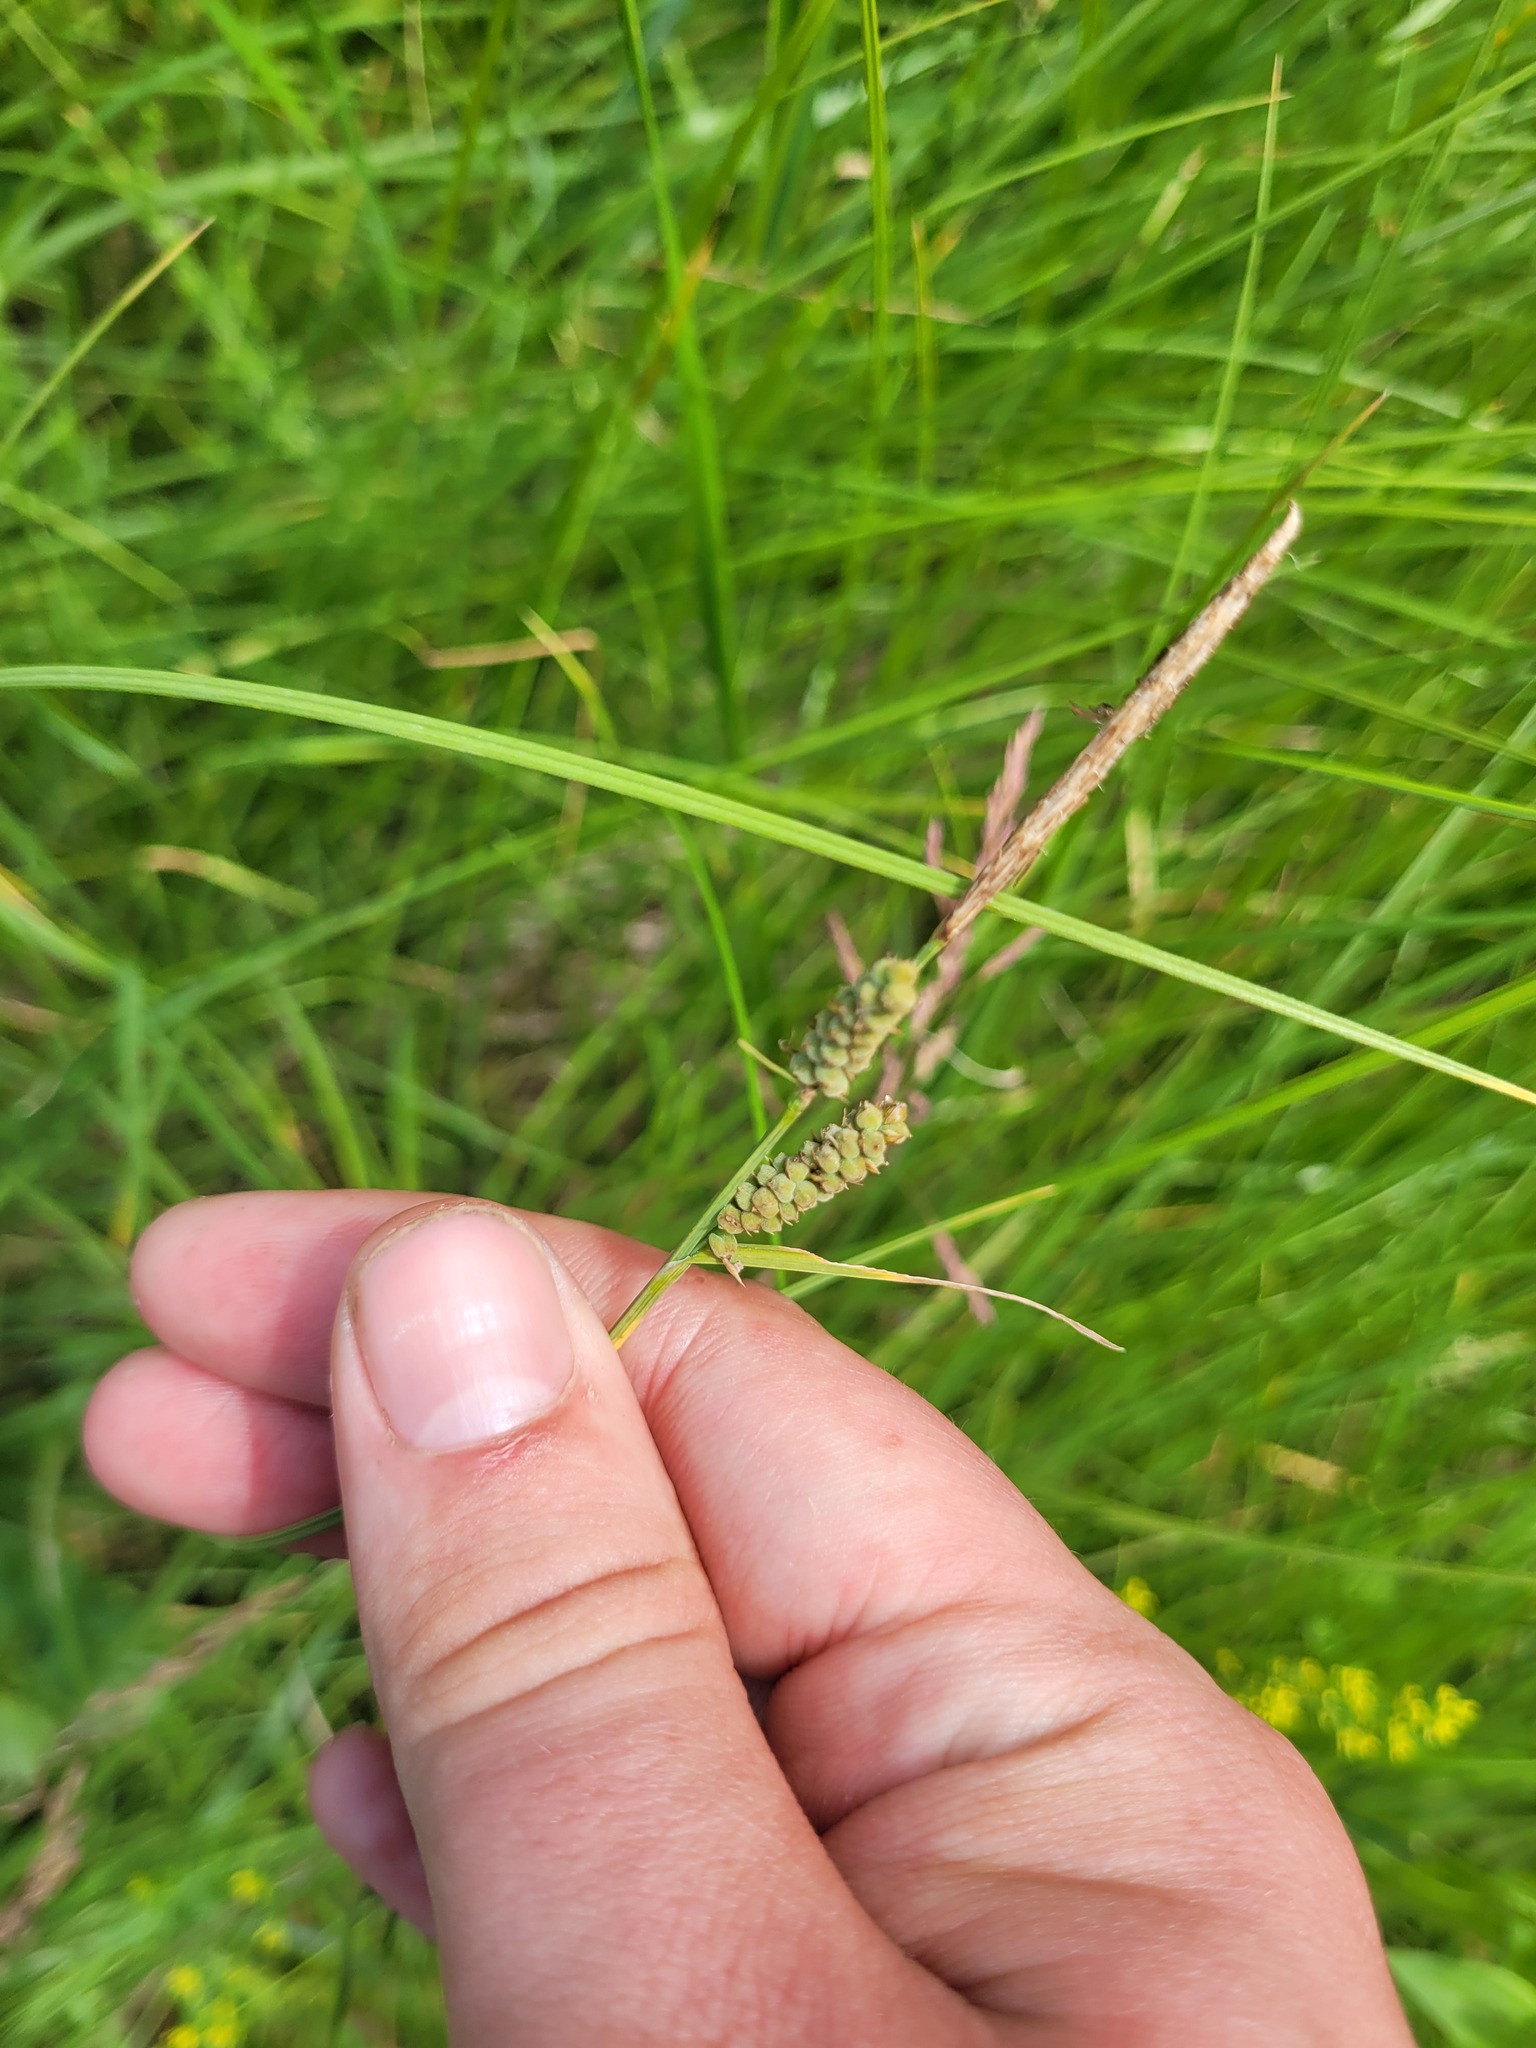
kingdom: Plantae
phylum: Tracheophyta
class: Liliopsida
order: Poales
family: Cyperaceae
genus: Carex
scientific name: Carex tomentosa
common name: Downy-fruited sedge
